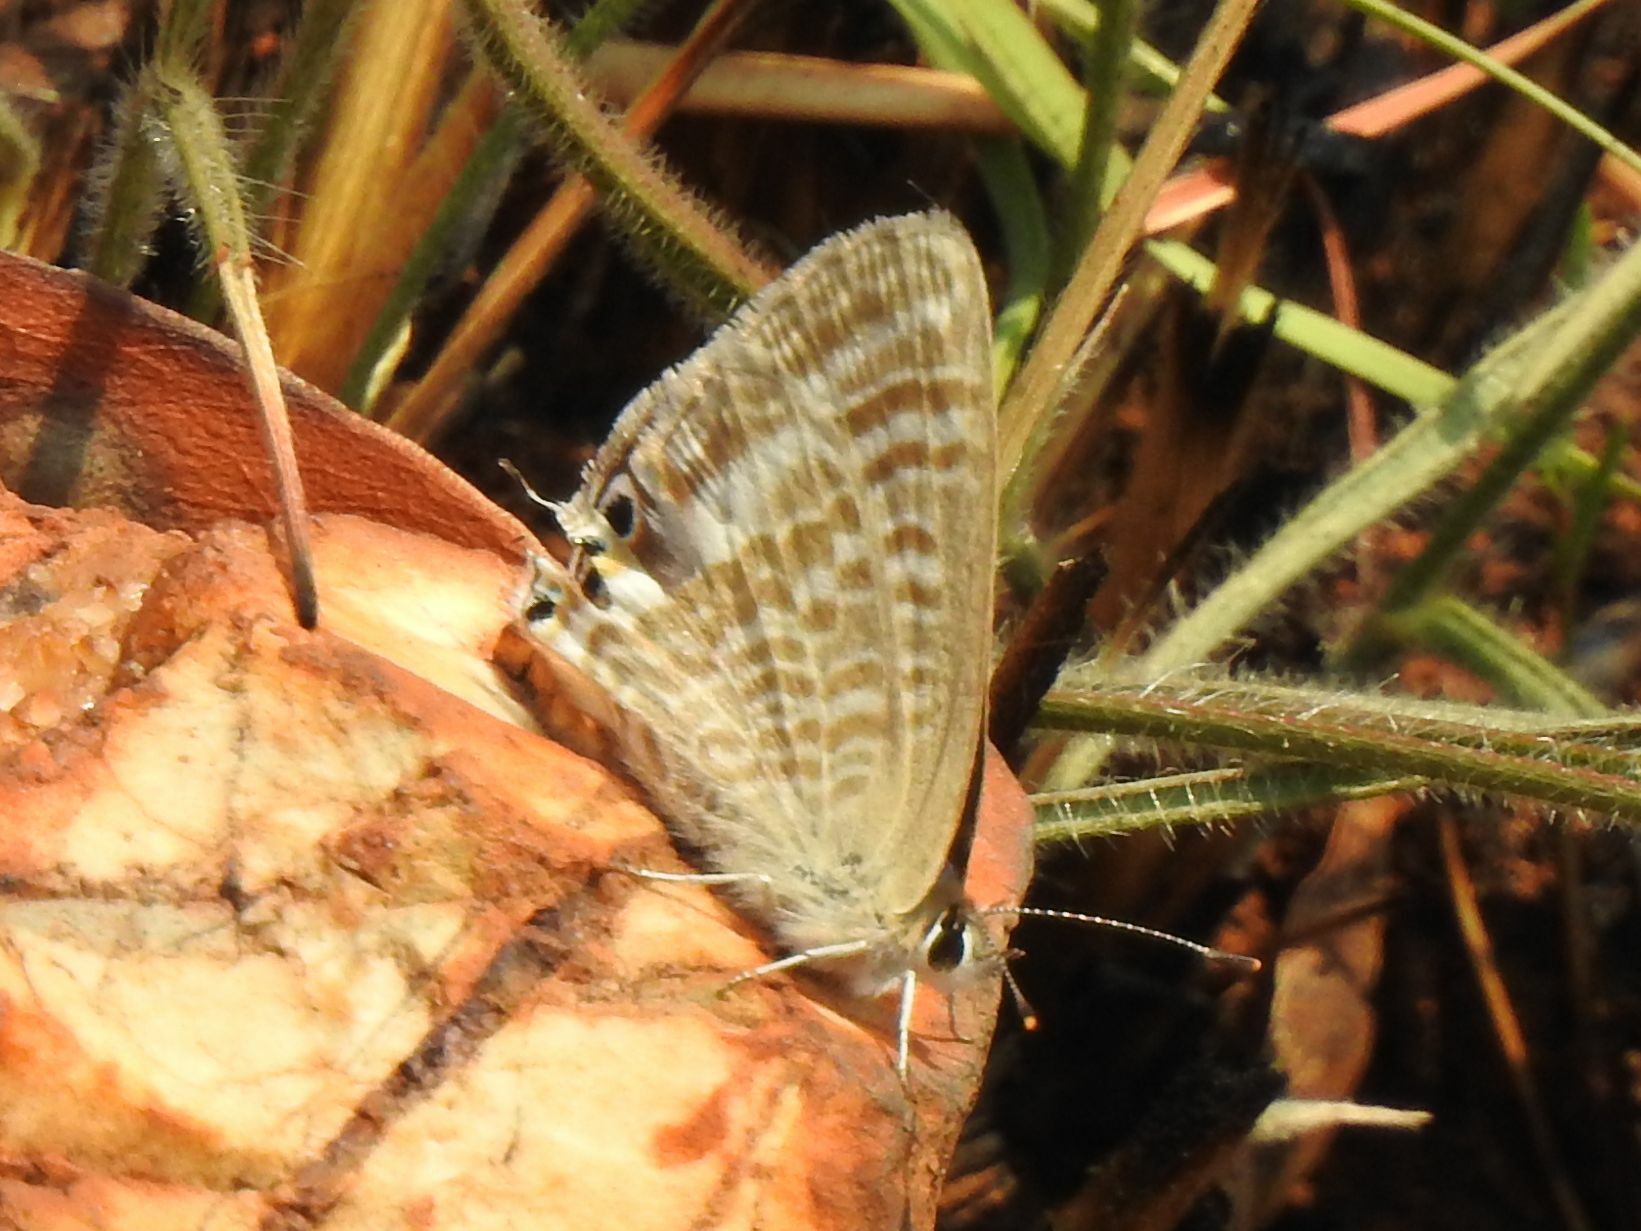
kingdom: Animalia
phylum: Arthropoda
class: Insecta
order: Lepidoptera
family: Lycaenidae
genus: Lampides
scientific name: Lampides boeticus
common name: Long-tailed blue
